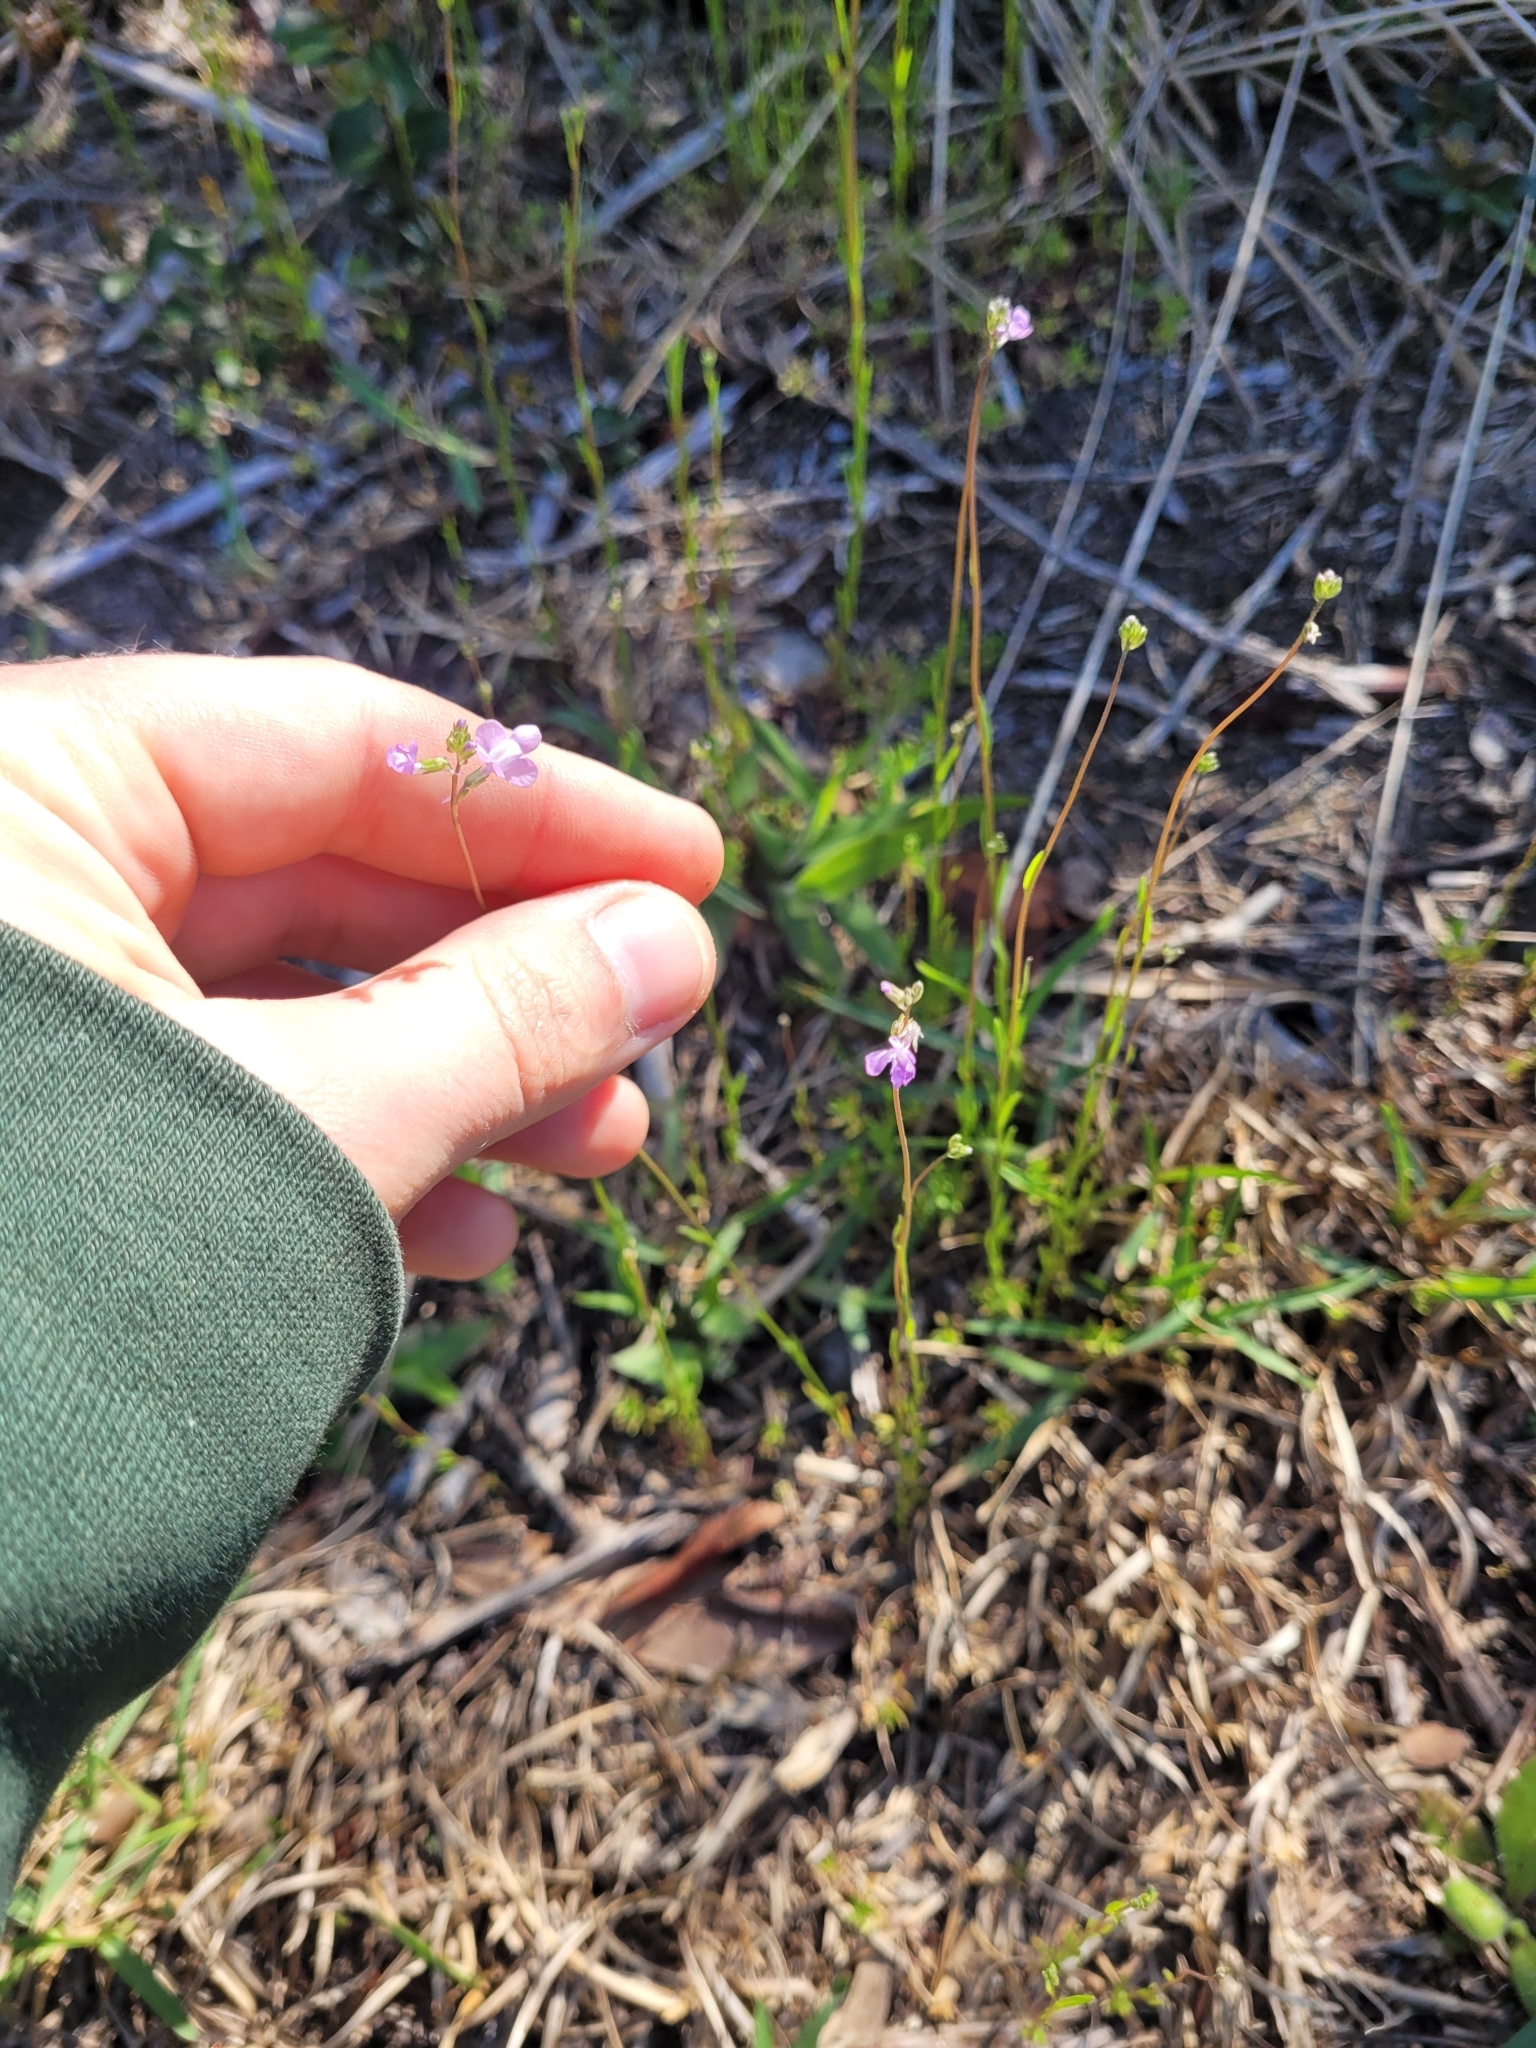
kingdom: Plantae
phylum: Tracheophyta
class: Magnoliopsida
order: Lamiales
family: Plantaginaceae
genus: Nuttallanthus
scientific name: Nuttallanthus canadensis
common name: Blue toadflax
